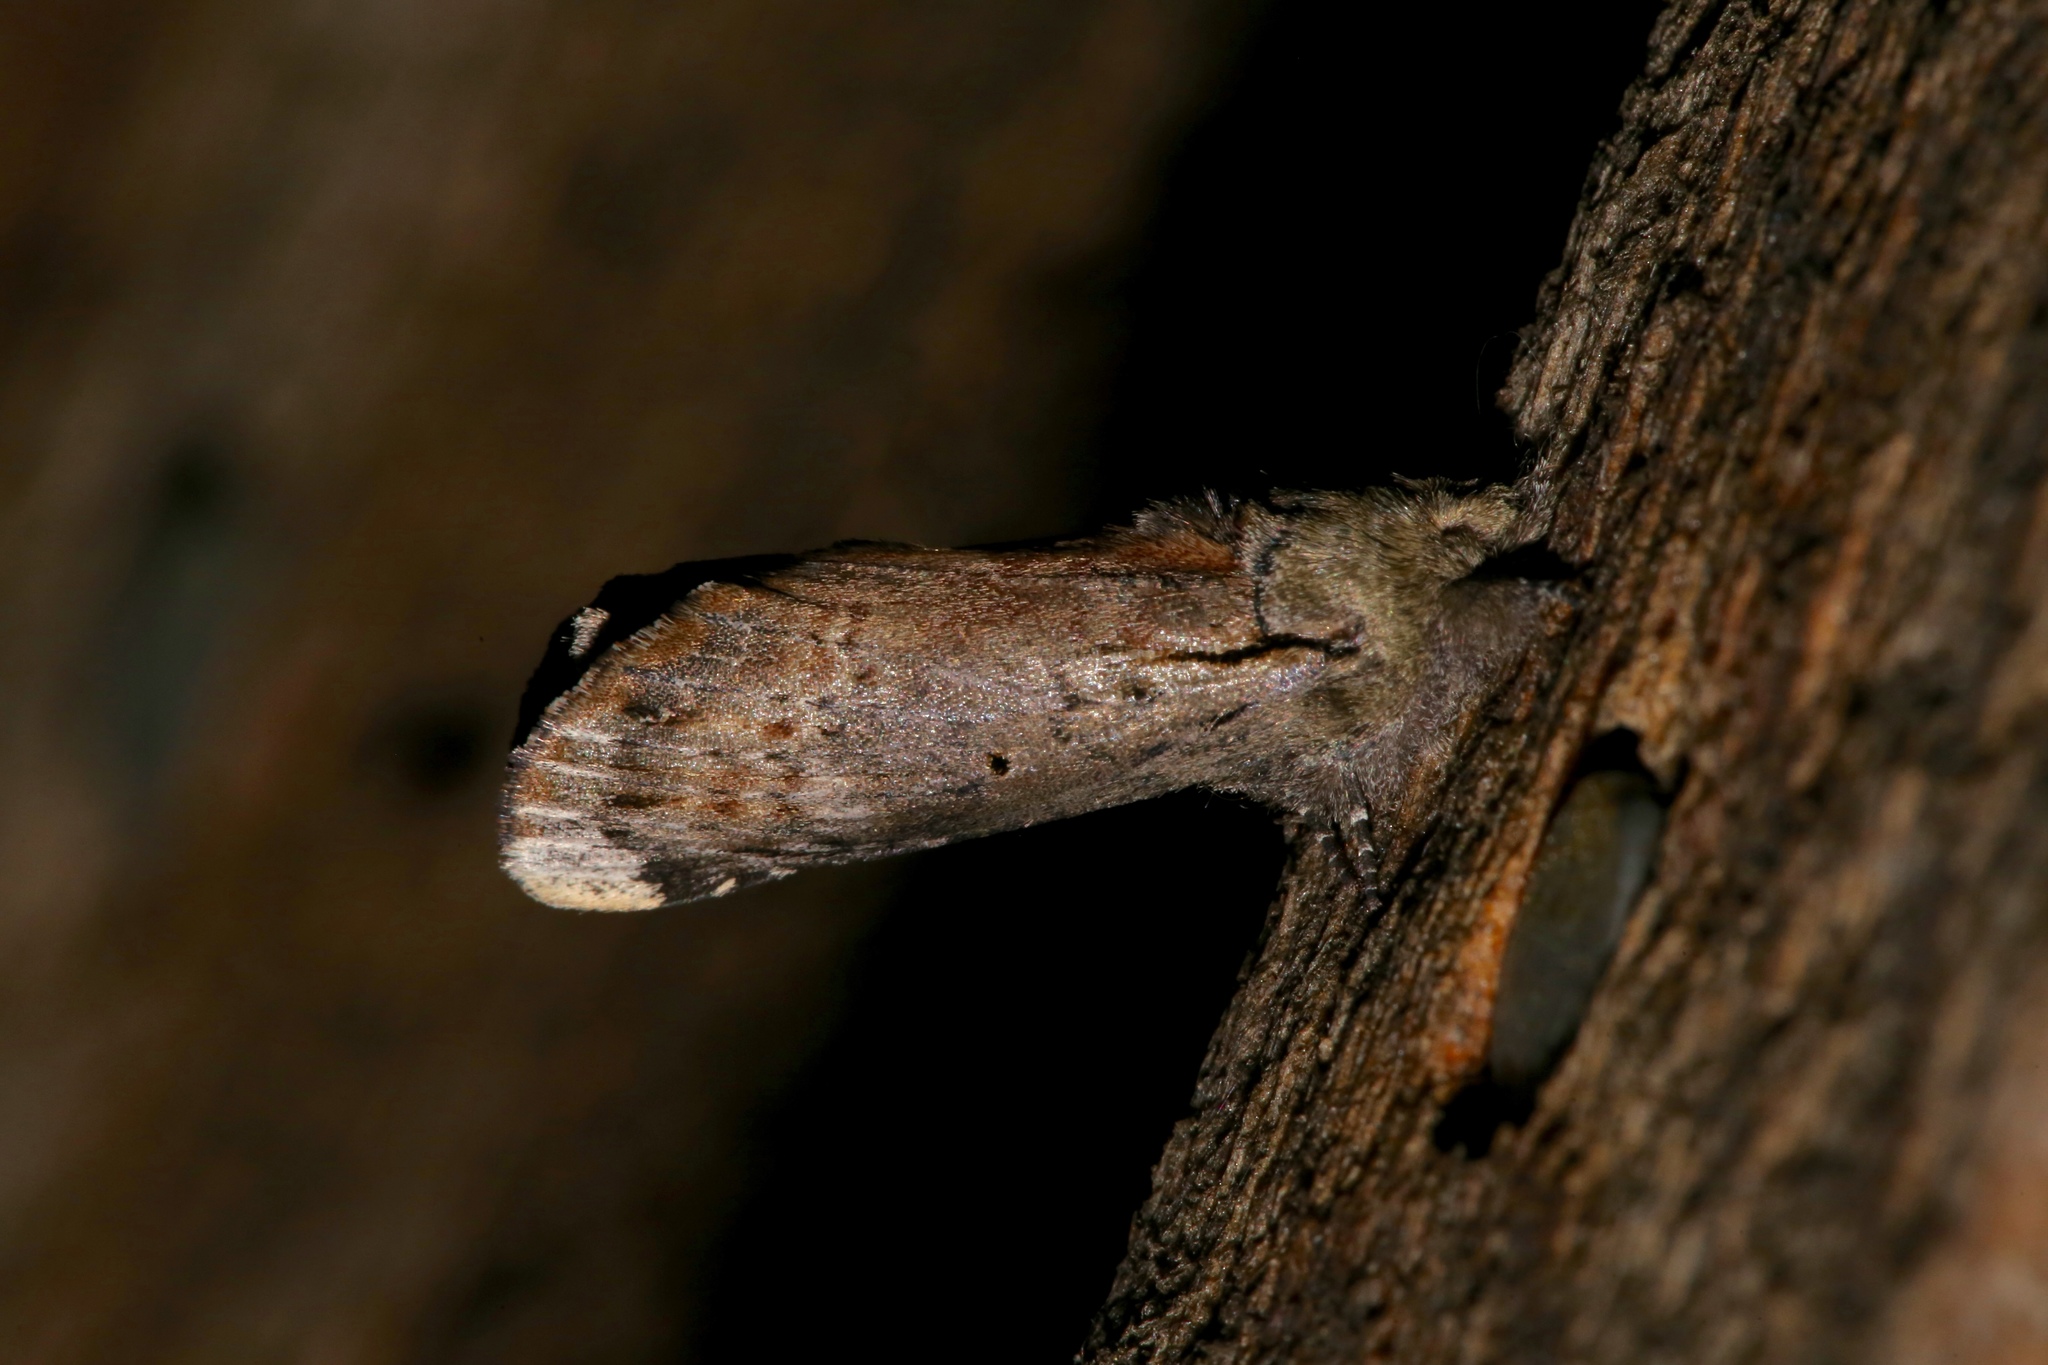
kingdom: Animalia
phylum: Arthropoda
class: Insecta
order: Lepidoptera
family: Notodontidae
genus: Schizura
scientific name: Schizura
